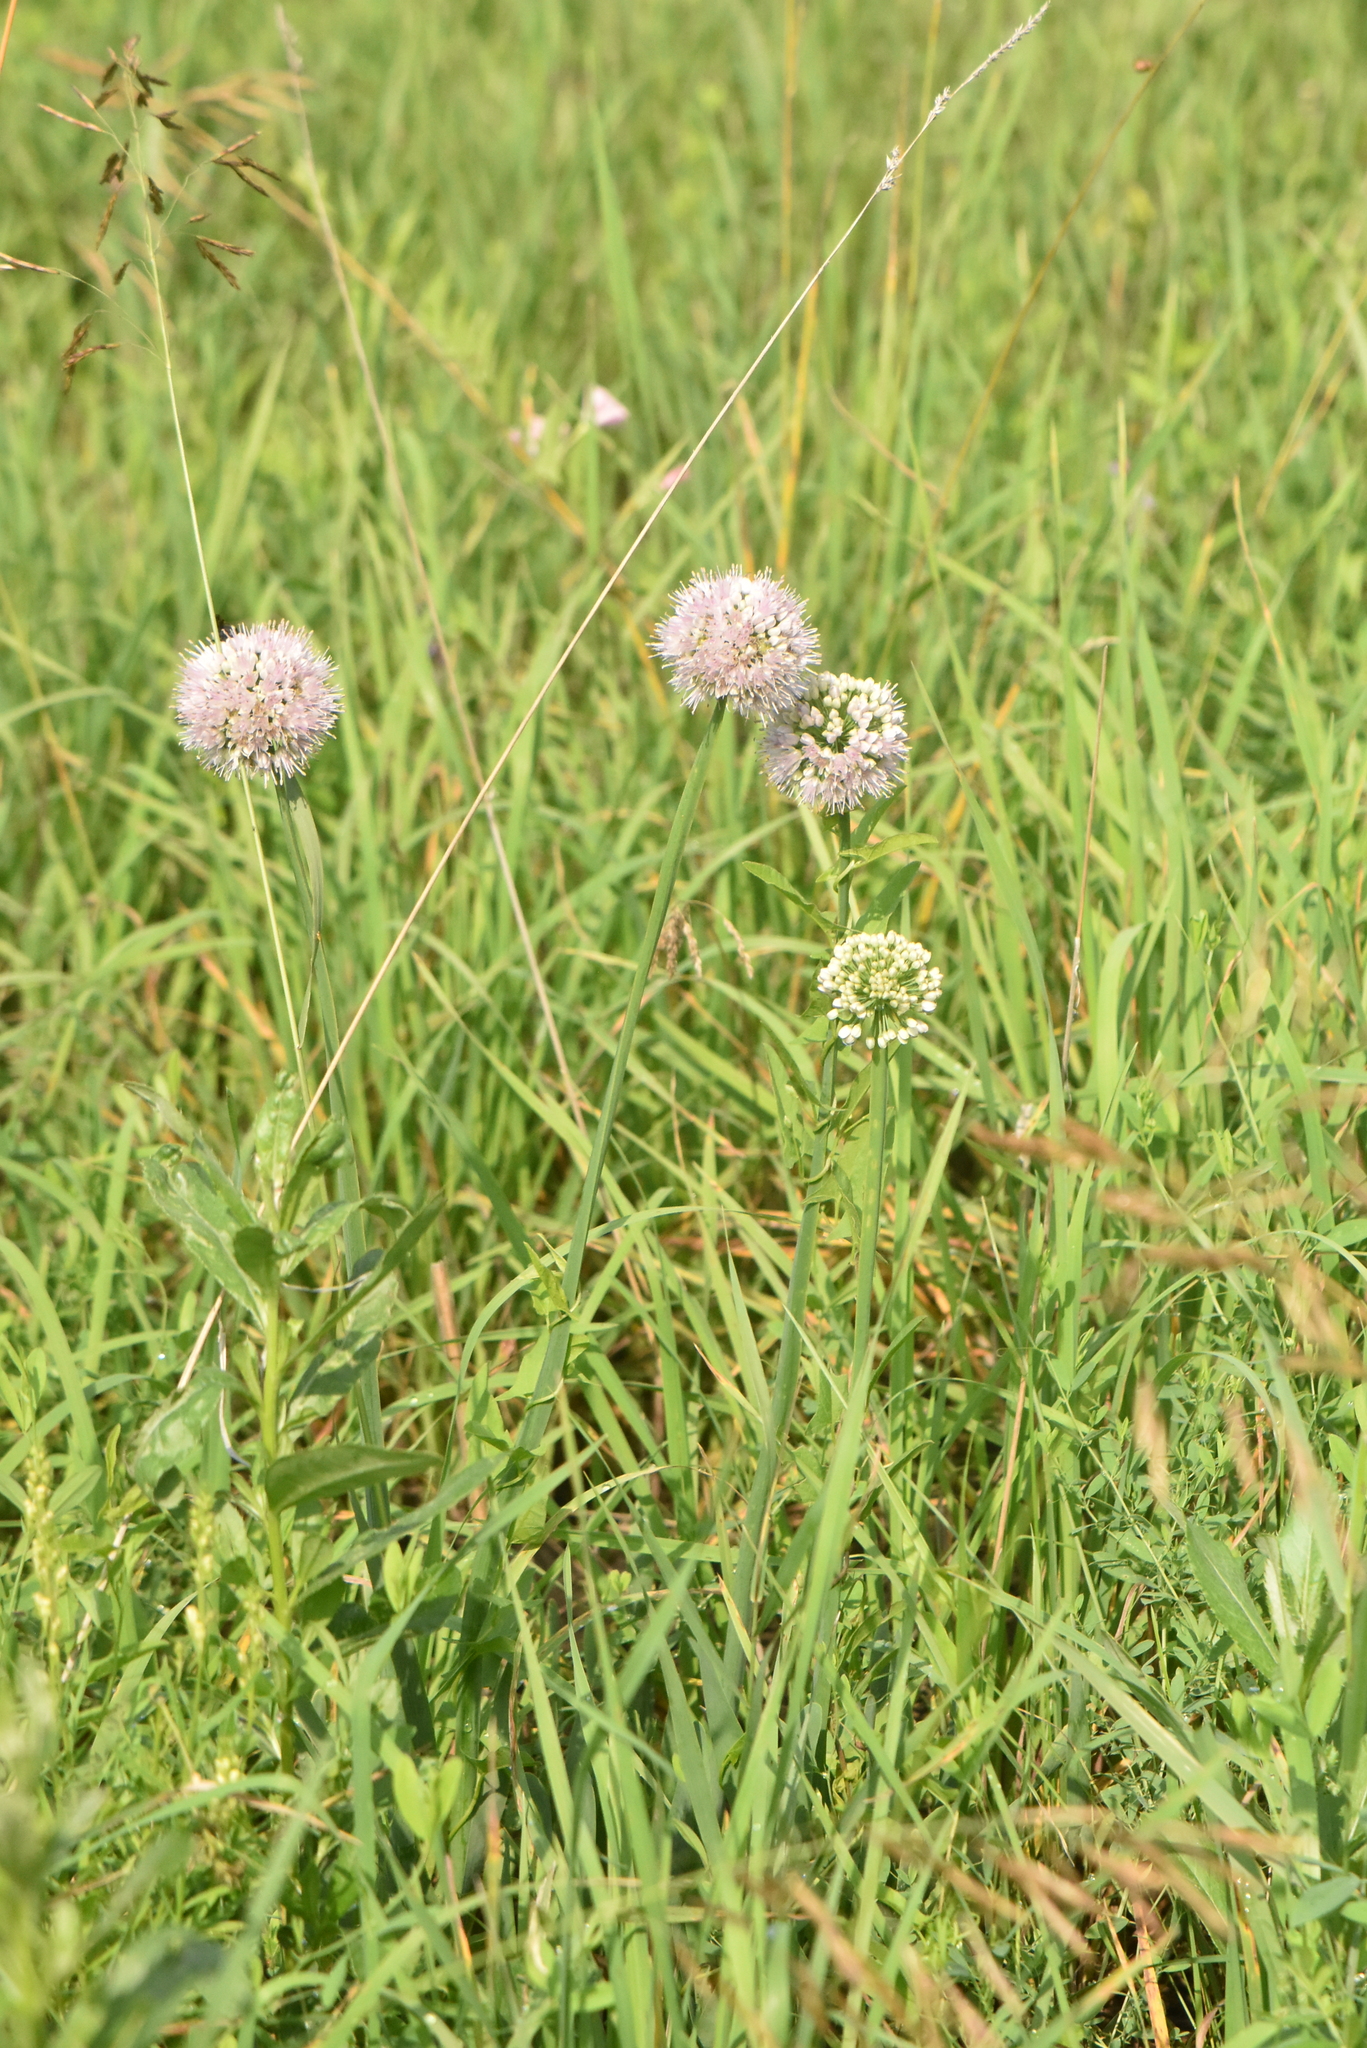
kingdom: Plantae
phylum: Tracheophyta
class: Liliopsida
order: Asparagales
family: Amaryllidaceae
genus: Allium
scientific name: Allium nutans
